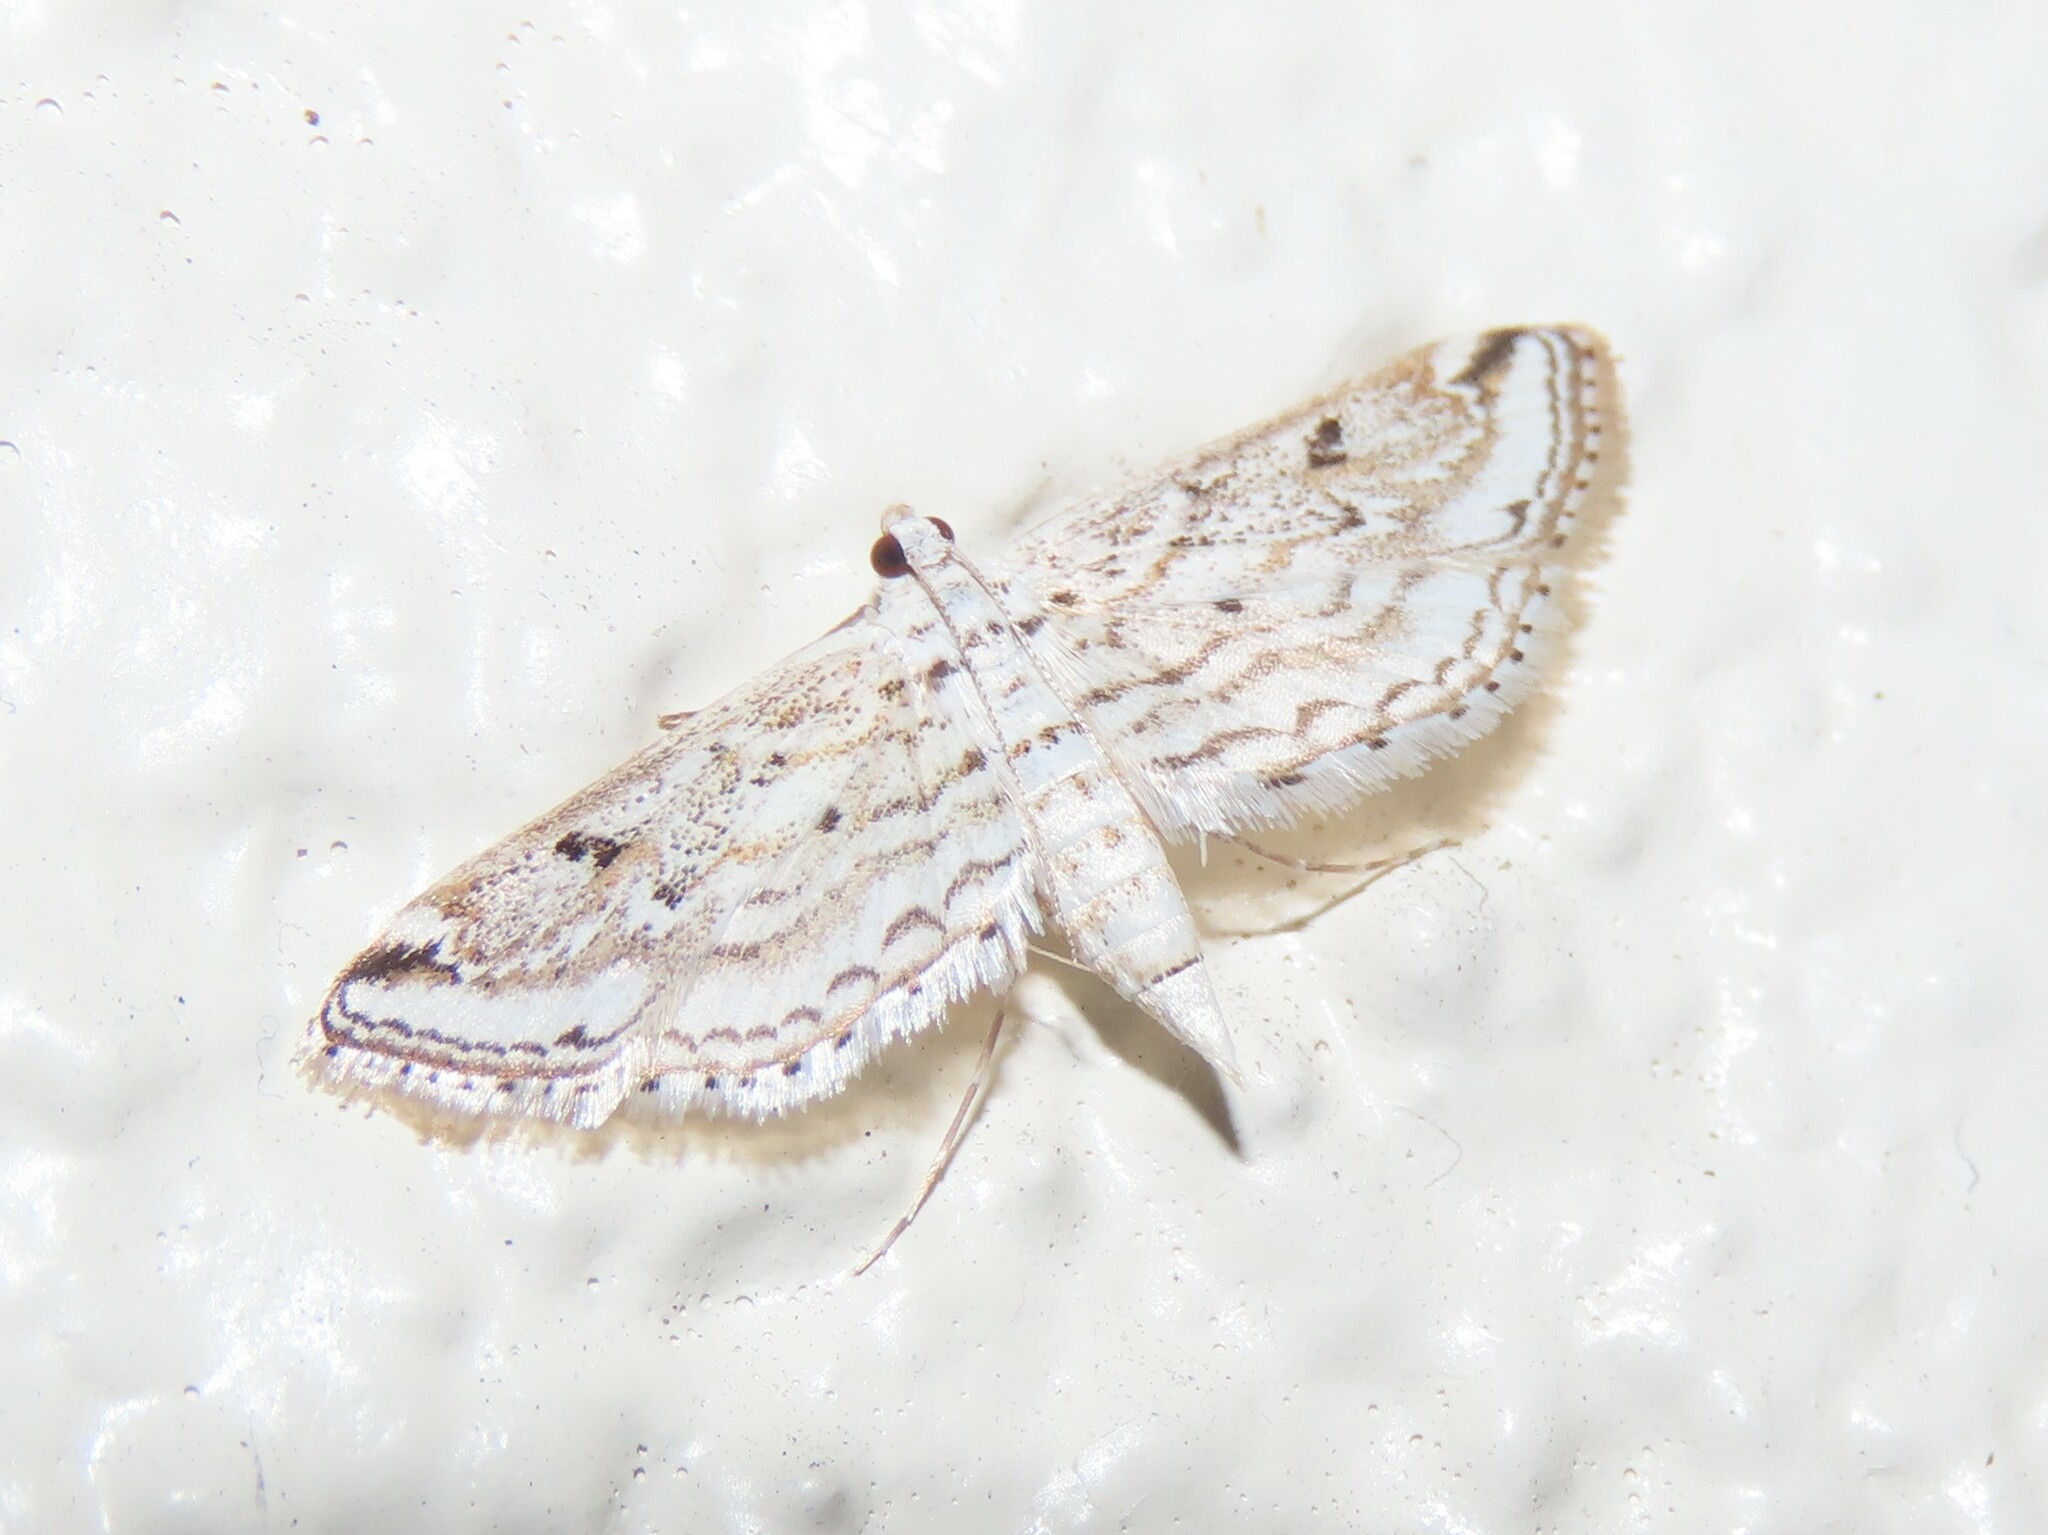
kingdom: Animalia
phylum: Arthropoda
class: Insecta
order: Lepidoptera
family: Crambidae
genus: Parapoynx
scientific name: Parapoynx allionealis
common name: Bladderwort casemaker
